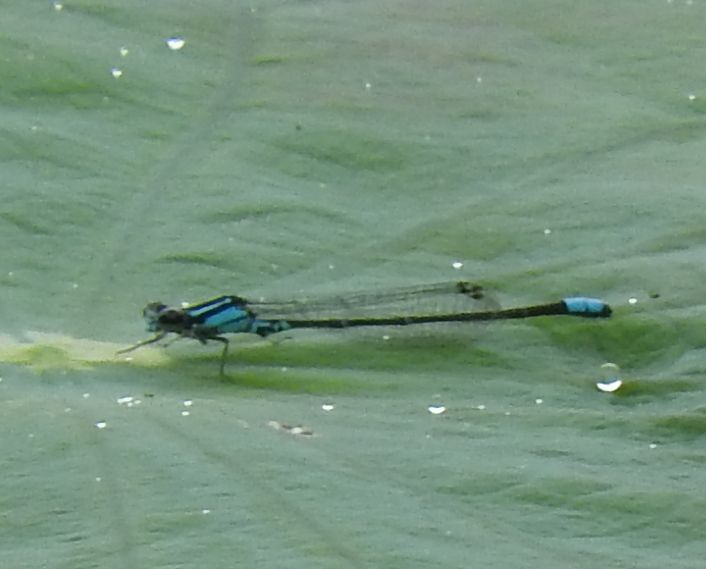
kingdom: Animalia
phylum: Arthropoda
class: Insecta
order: Odonata
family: Coenagrionidae
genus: Enallagma
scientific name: Enallagma geminatum
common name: Skimming bluet
